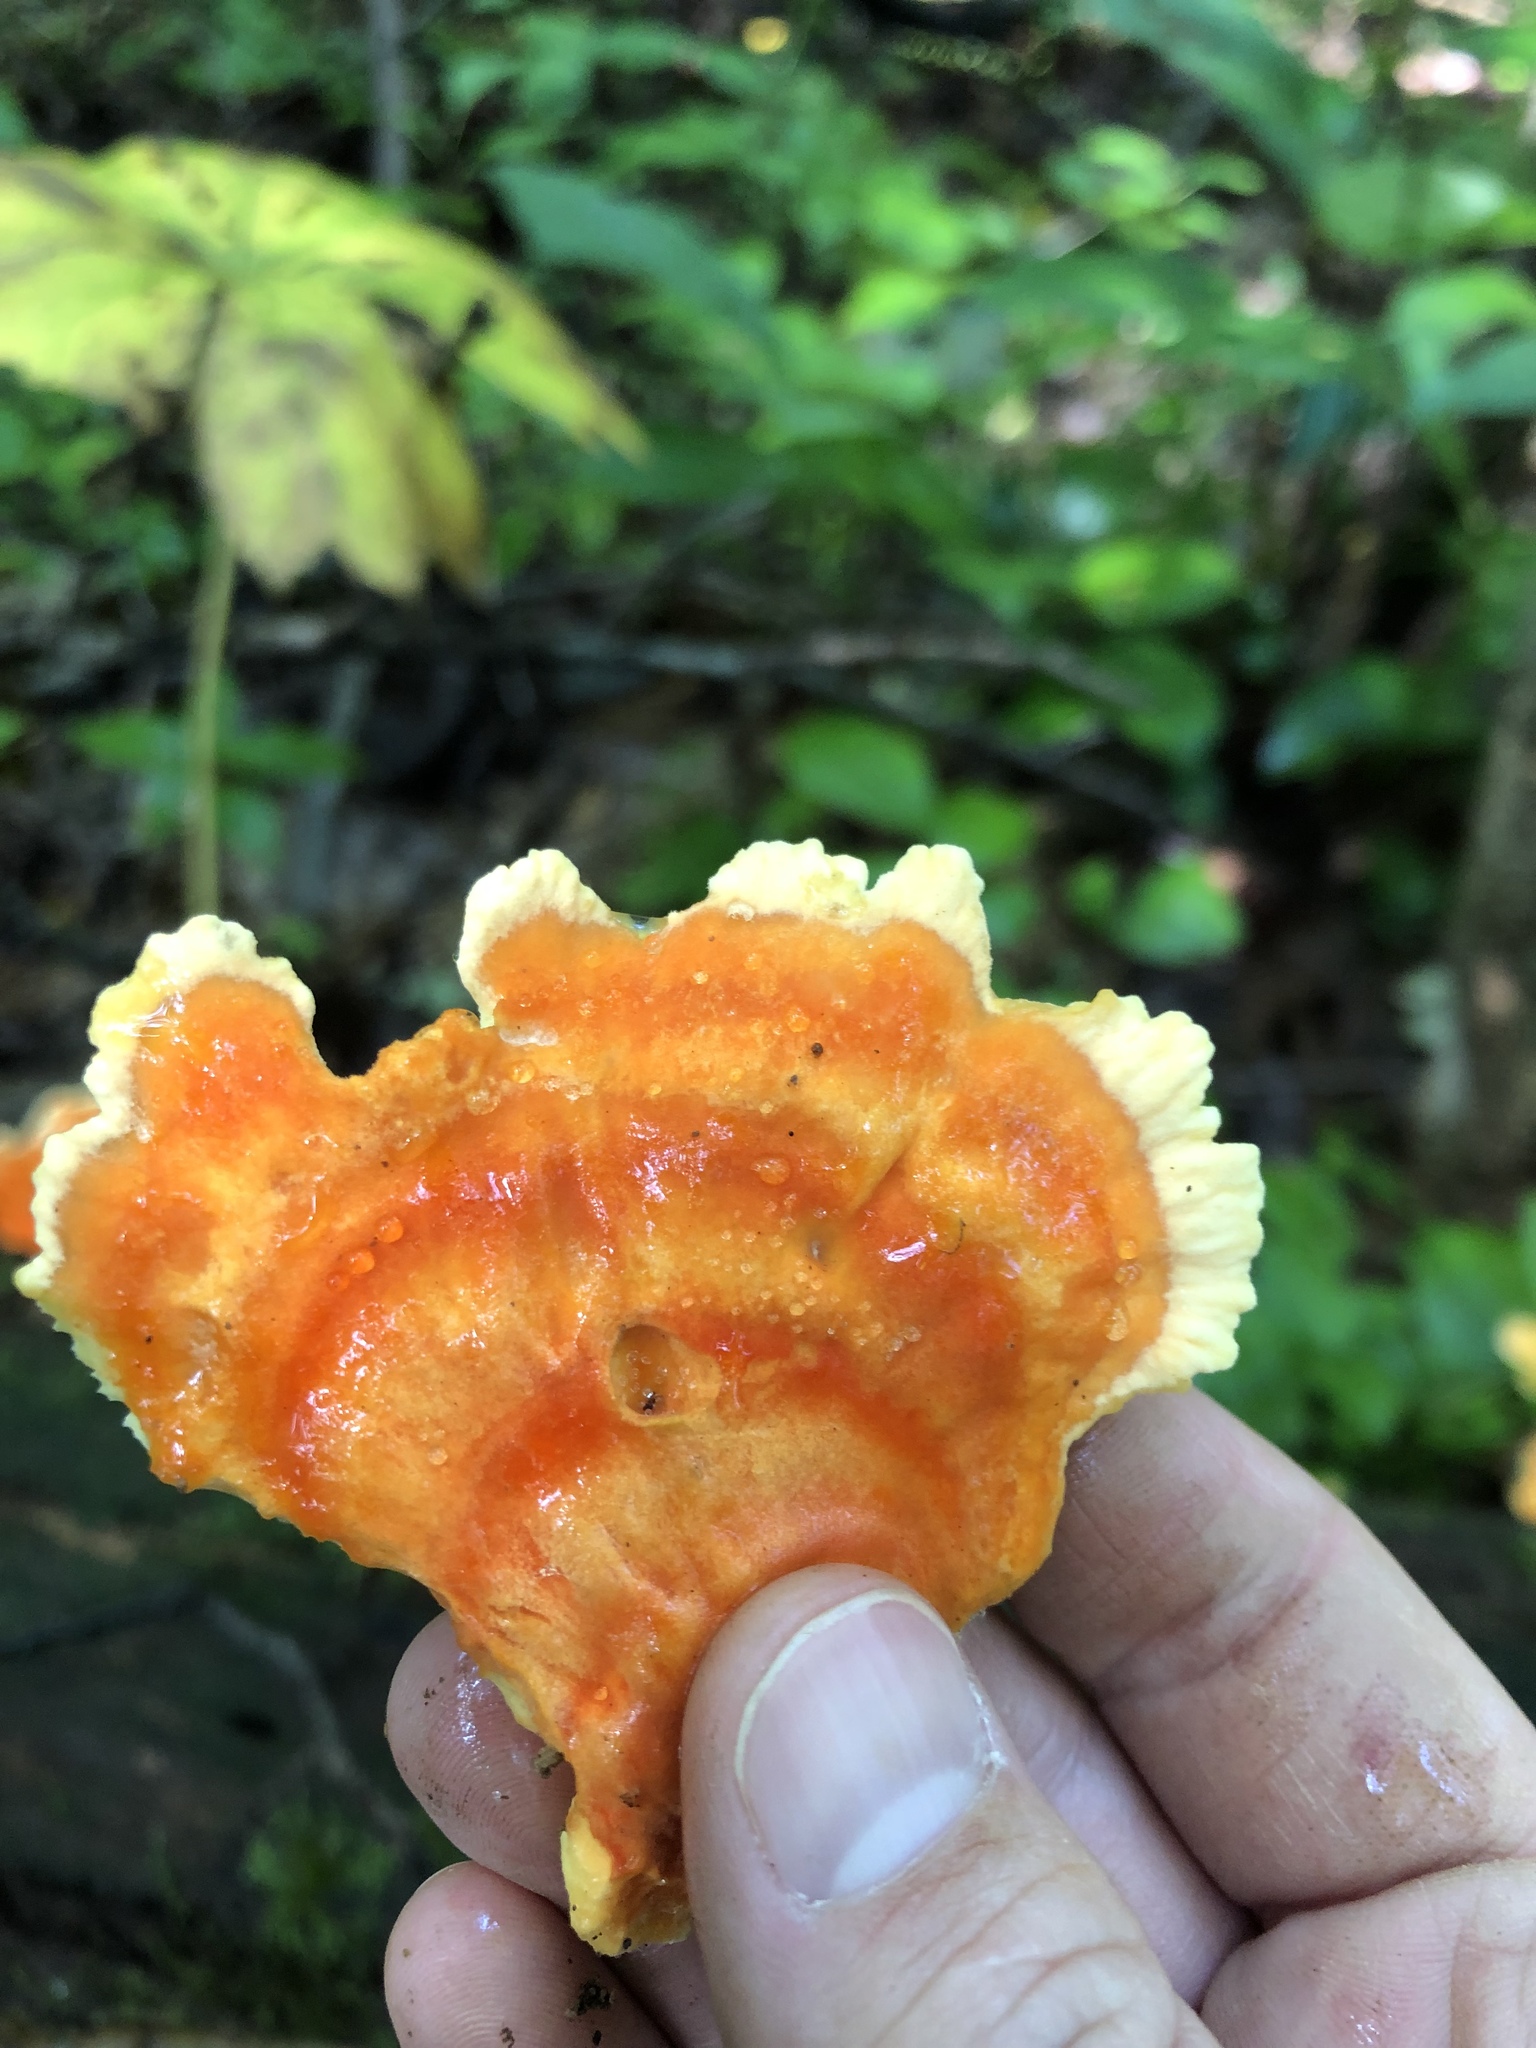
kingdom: Fungi
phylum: Basidiomycota
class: Agaricomycetes
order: Polyporales
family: Laetiporaceae
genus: Laetiporus
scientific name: Laetiporus sulphureus
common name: Chicken of the woods
